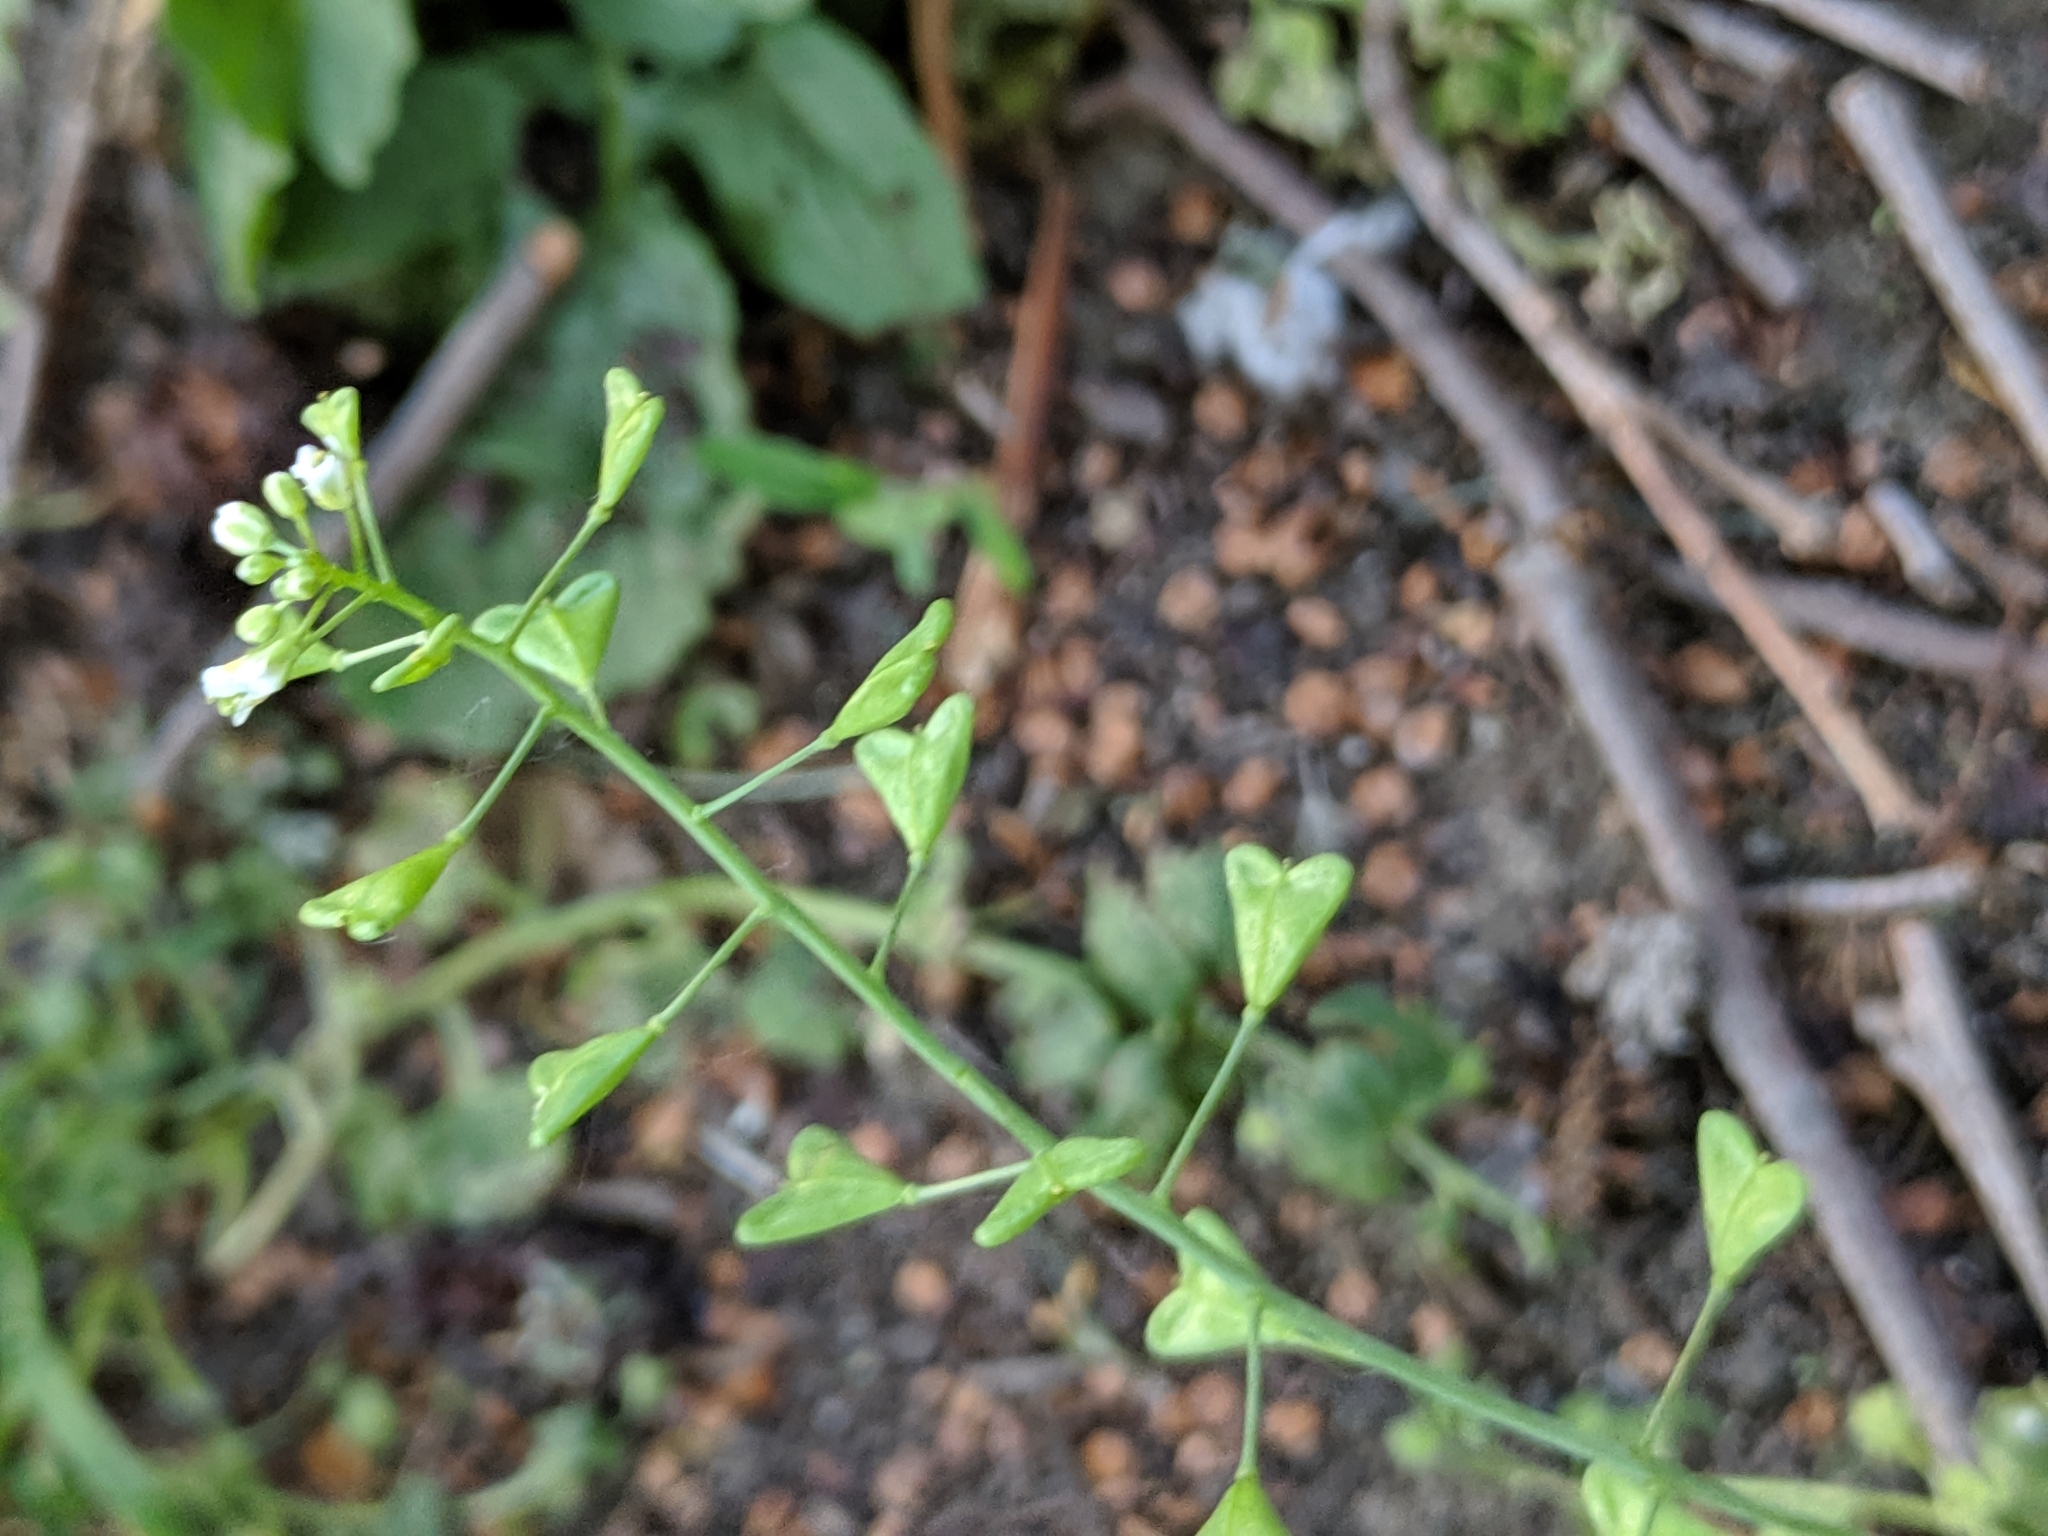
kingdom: Plantae
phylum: Tracheophyta
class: Magnoliopsida
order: Brassicales
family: Brassicaceae
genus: Capsella
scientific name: Capsella bursa-pastoris
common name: Shepherd's purse
